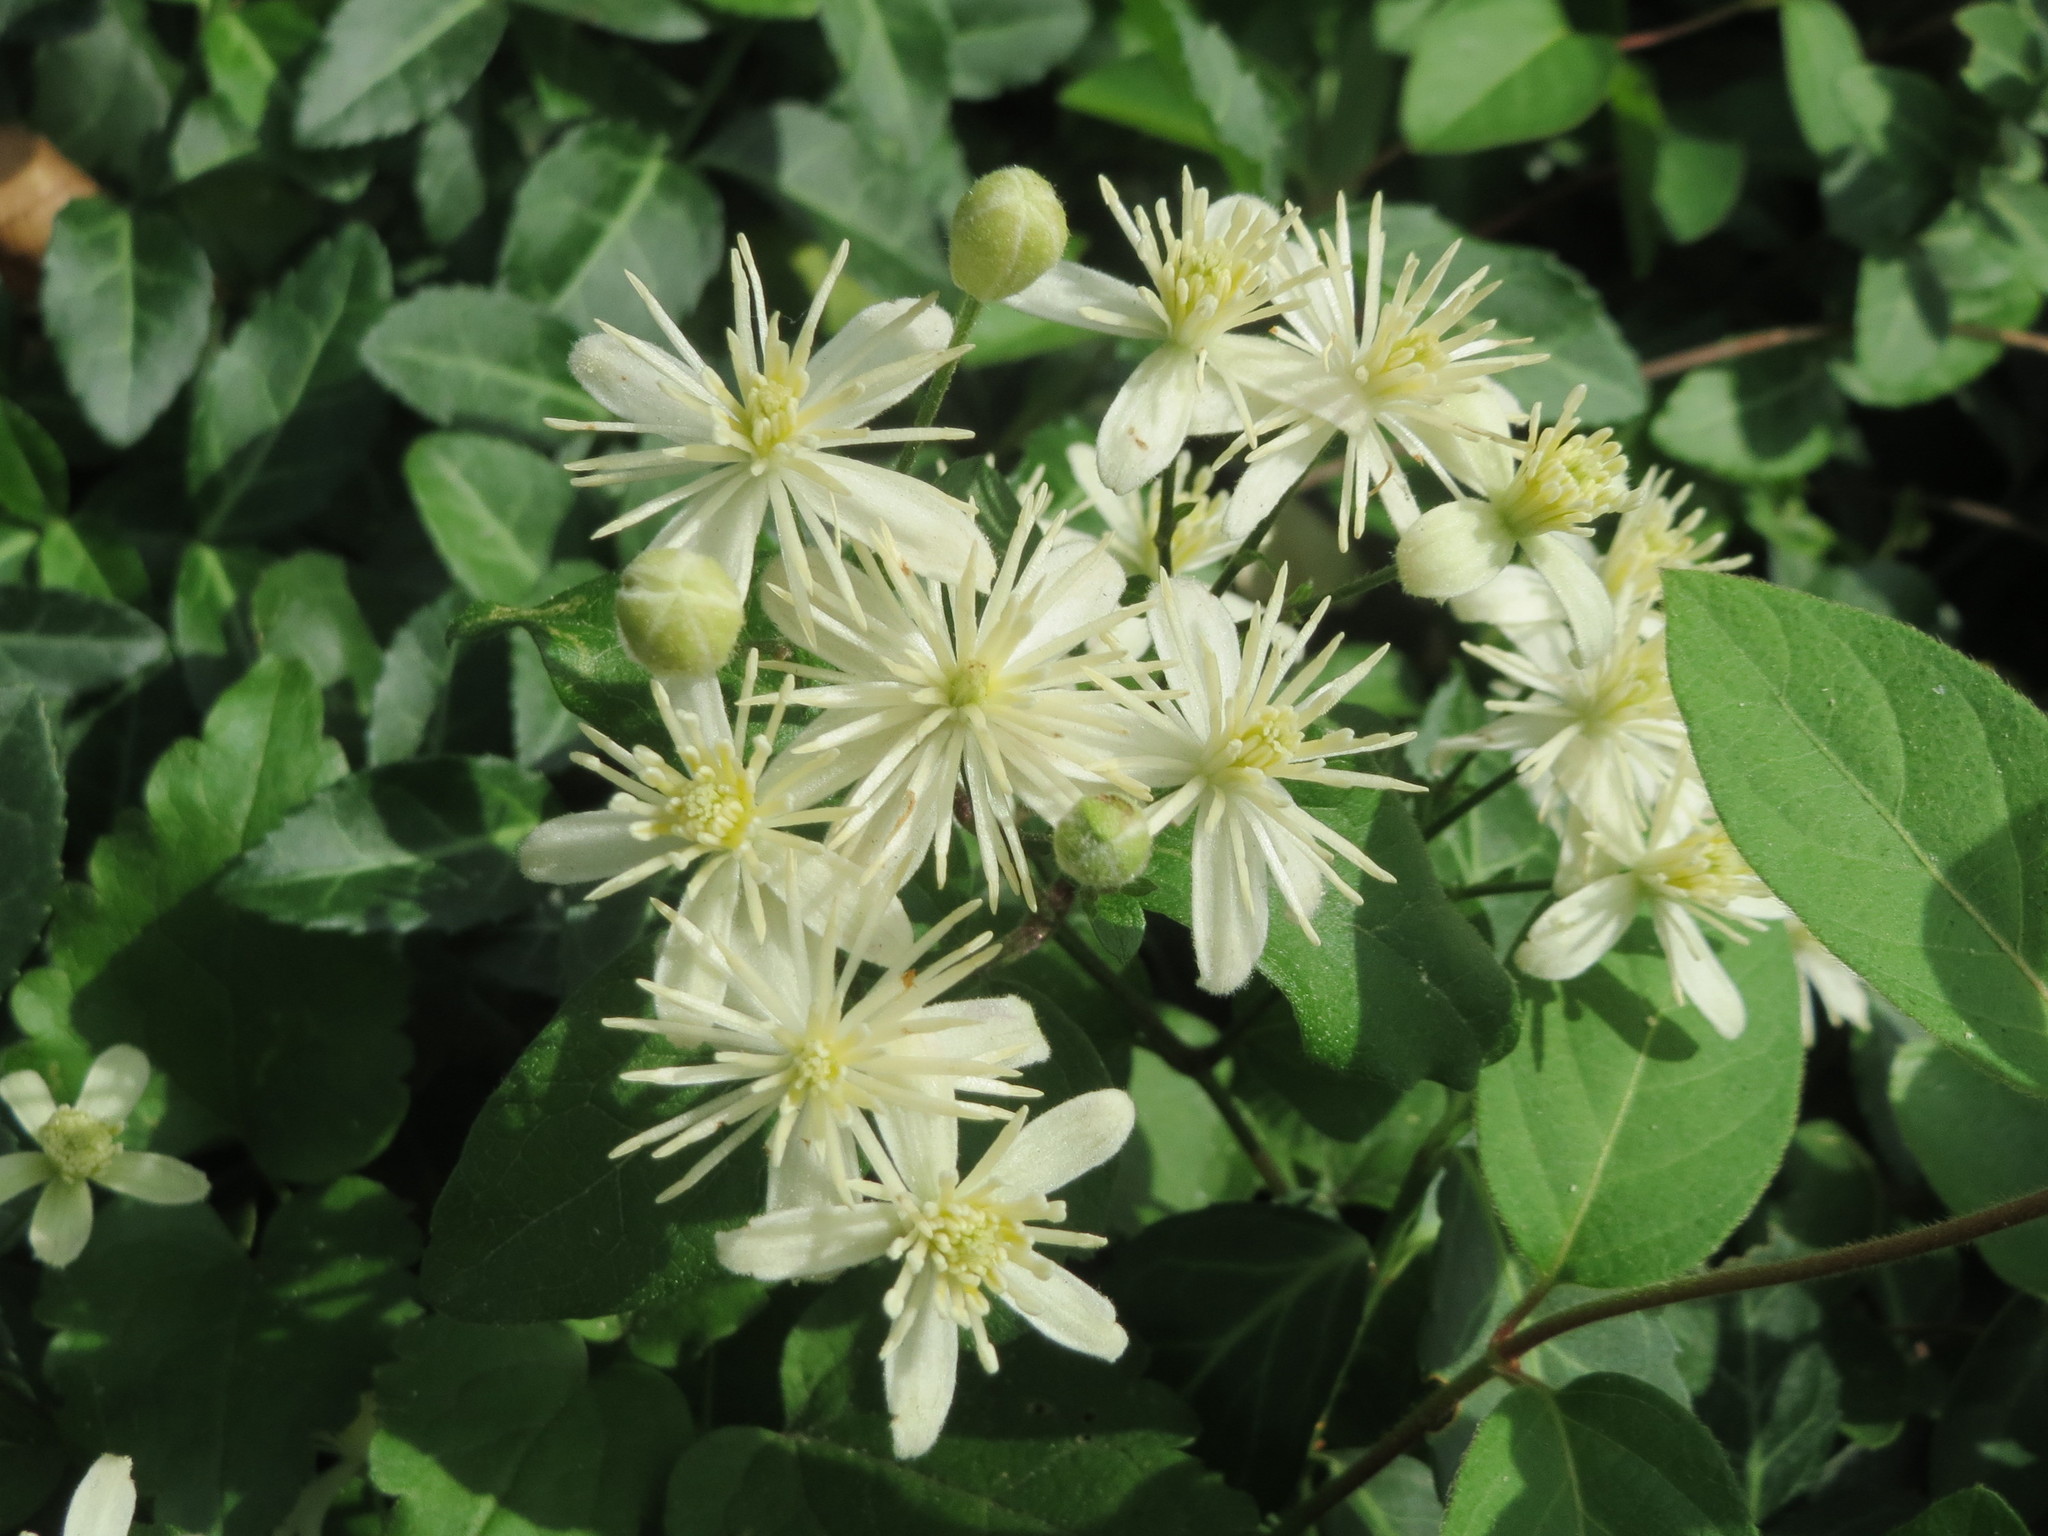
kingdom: Plantae
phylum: Tracheophyta
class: Magnoliopsida
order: Ranunculales
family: Ranunculaceae
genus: Clematis
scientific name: Clematis vitalba
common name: Evergreen clematis
